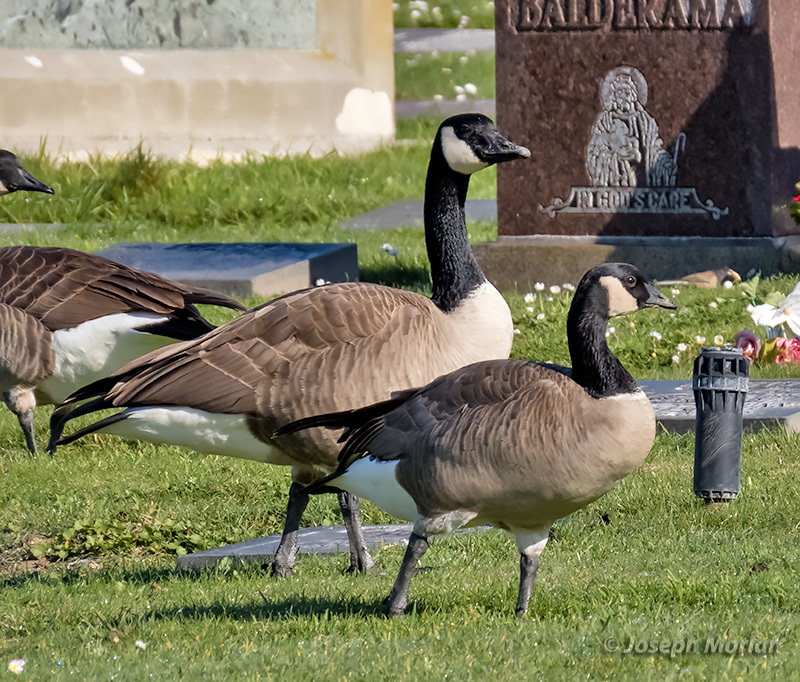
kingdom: Animalia
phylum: Chordata
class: Aves
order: Anseriformes
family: Anatidae
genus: Branta
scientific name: Branta hutchinsii
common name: Cackling goose
